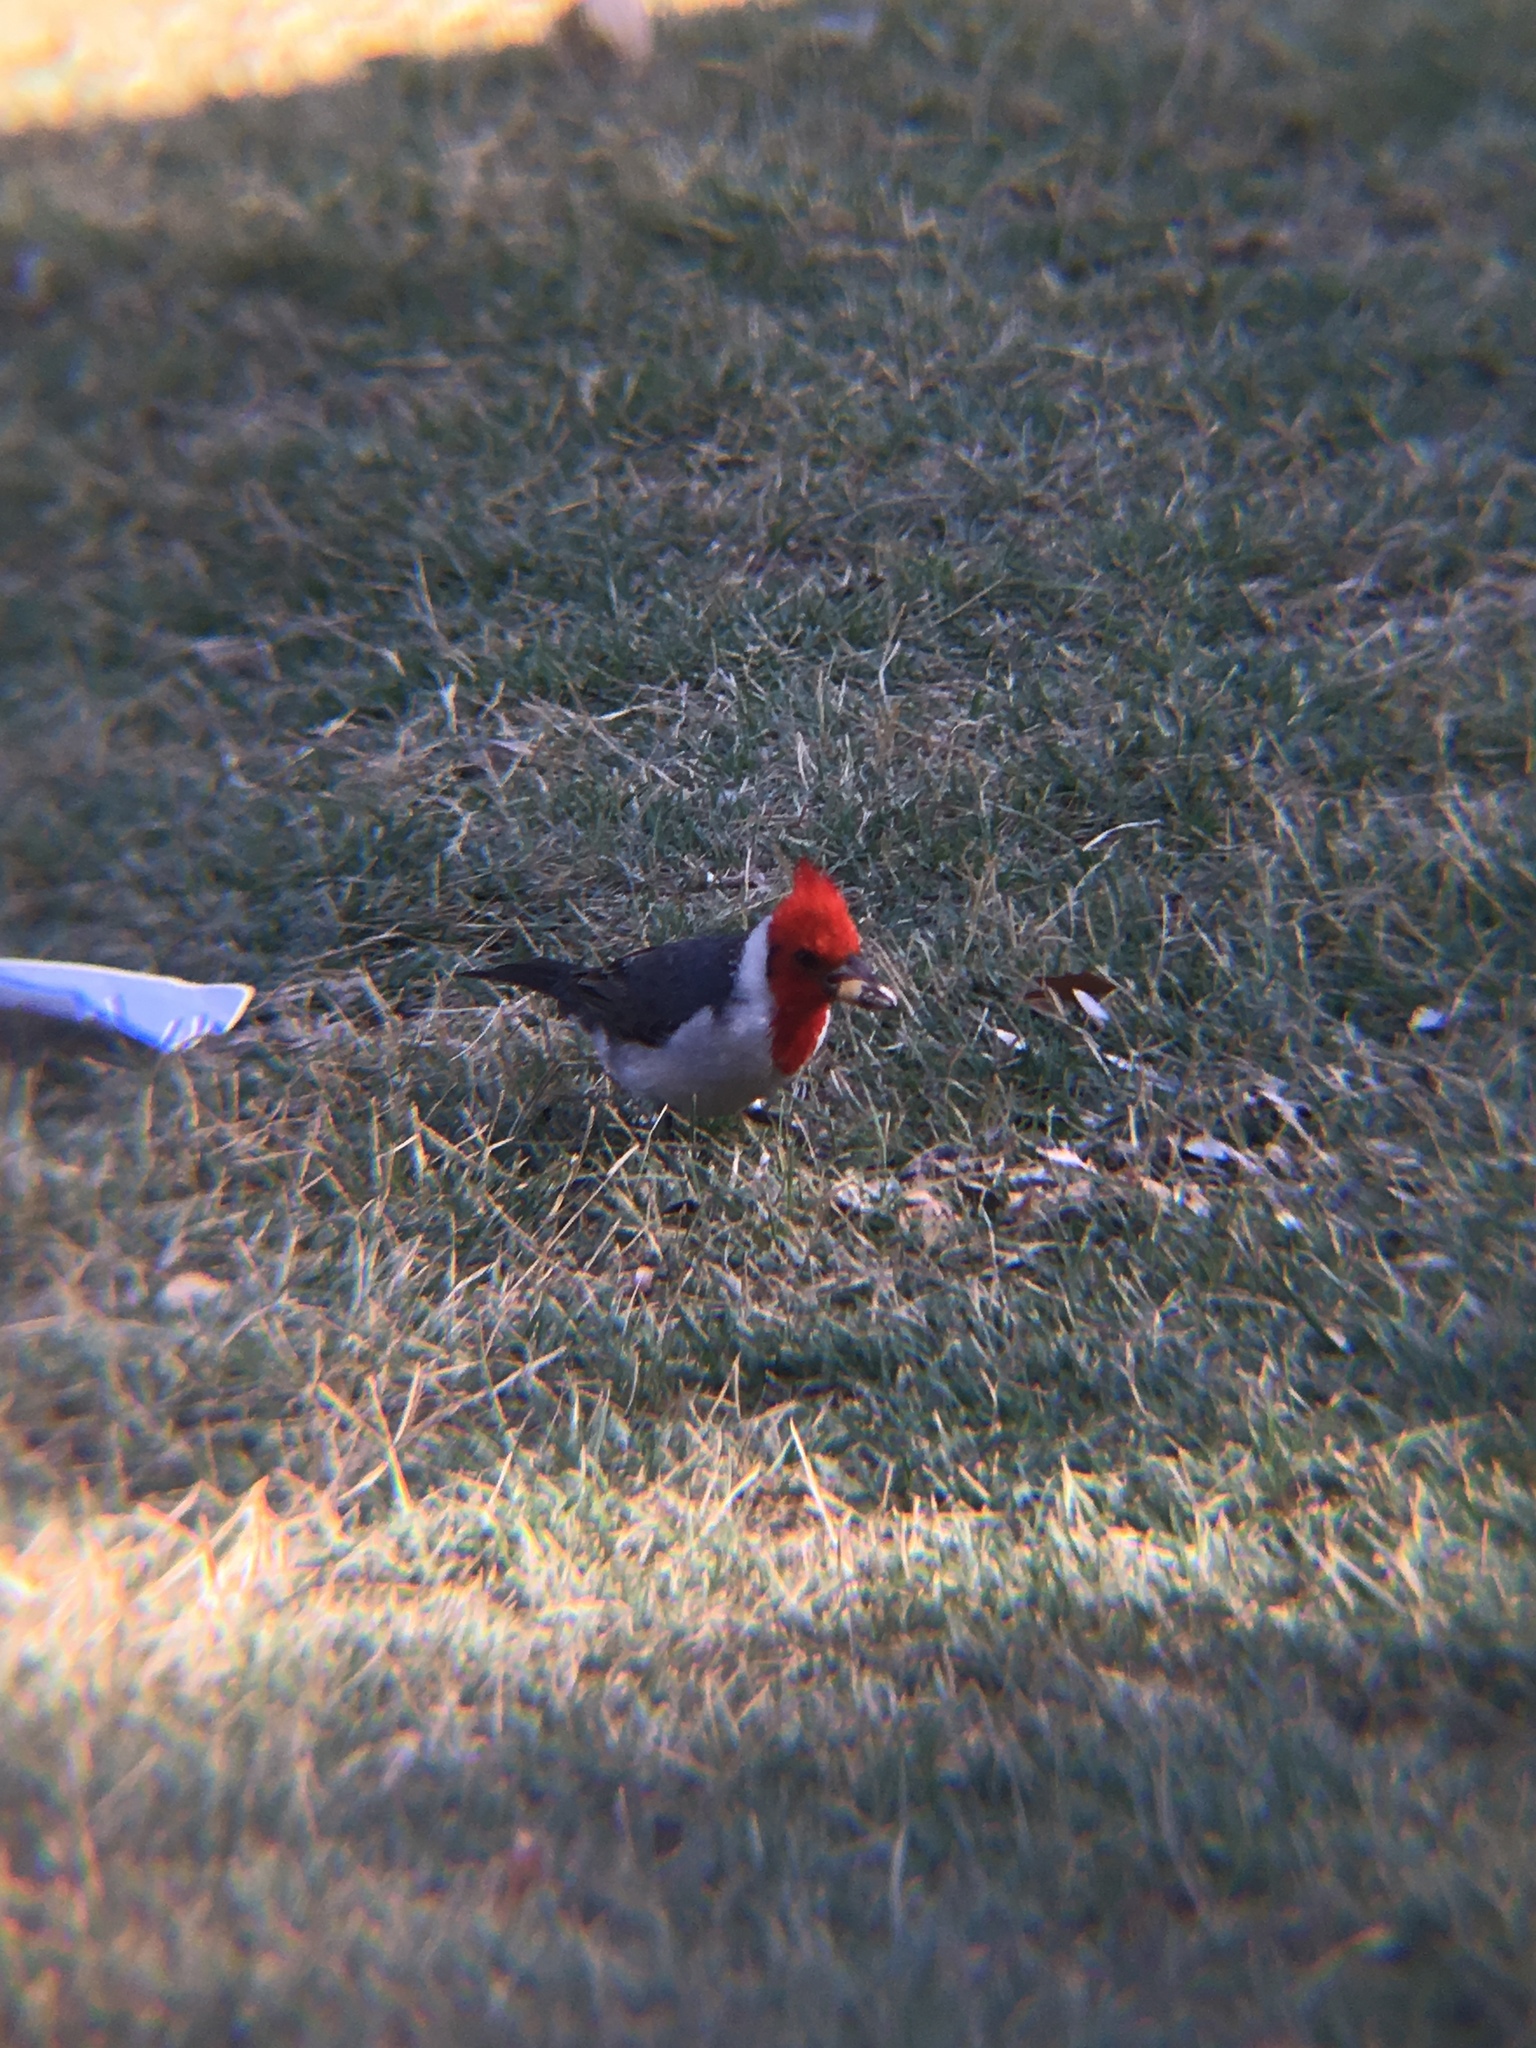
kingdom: Animalia
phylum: Chordata
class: Aves
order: Passeriformes
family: Thraupidae
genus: Paroaria
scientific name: Paroaria coronata
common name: Red-crested cardinal
